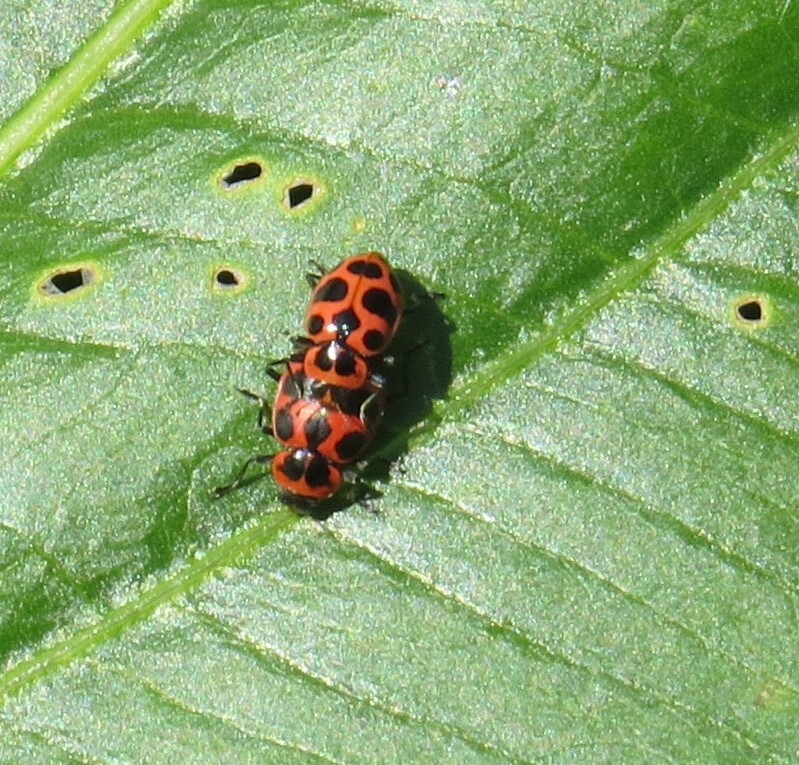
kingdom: Animalia
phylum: Arthropoda
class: Insecta
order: Coleoptera
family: Coccinellidae
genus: Coleomegilla
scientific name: Coleomegilla maculata
